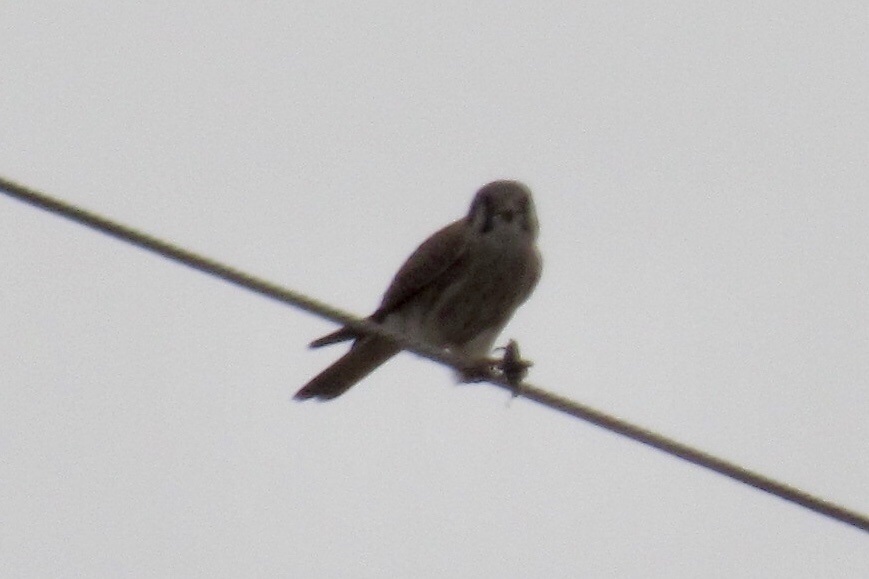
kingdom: Animalia
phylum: Chordata
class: Aves
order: Falconiformes
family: Falconidae
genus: Falco
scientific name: Falco sparverius
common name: American kestrel
